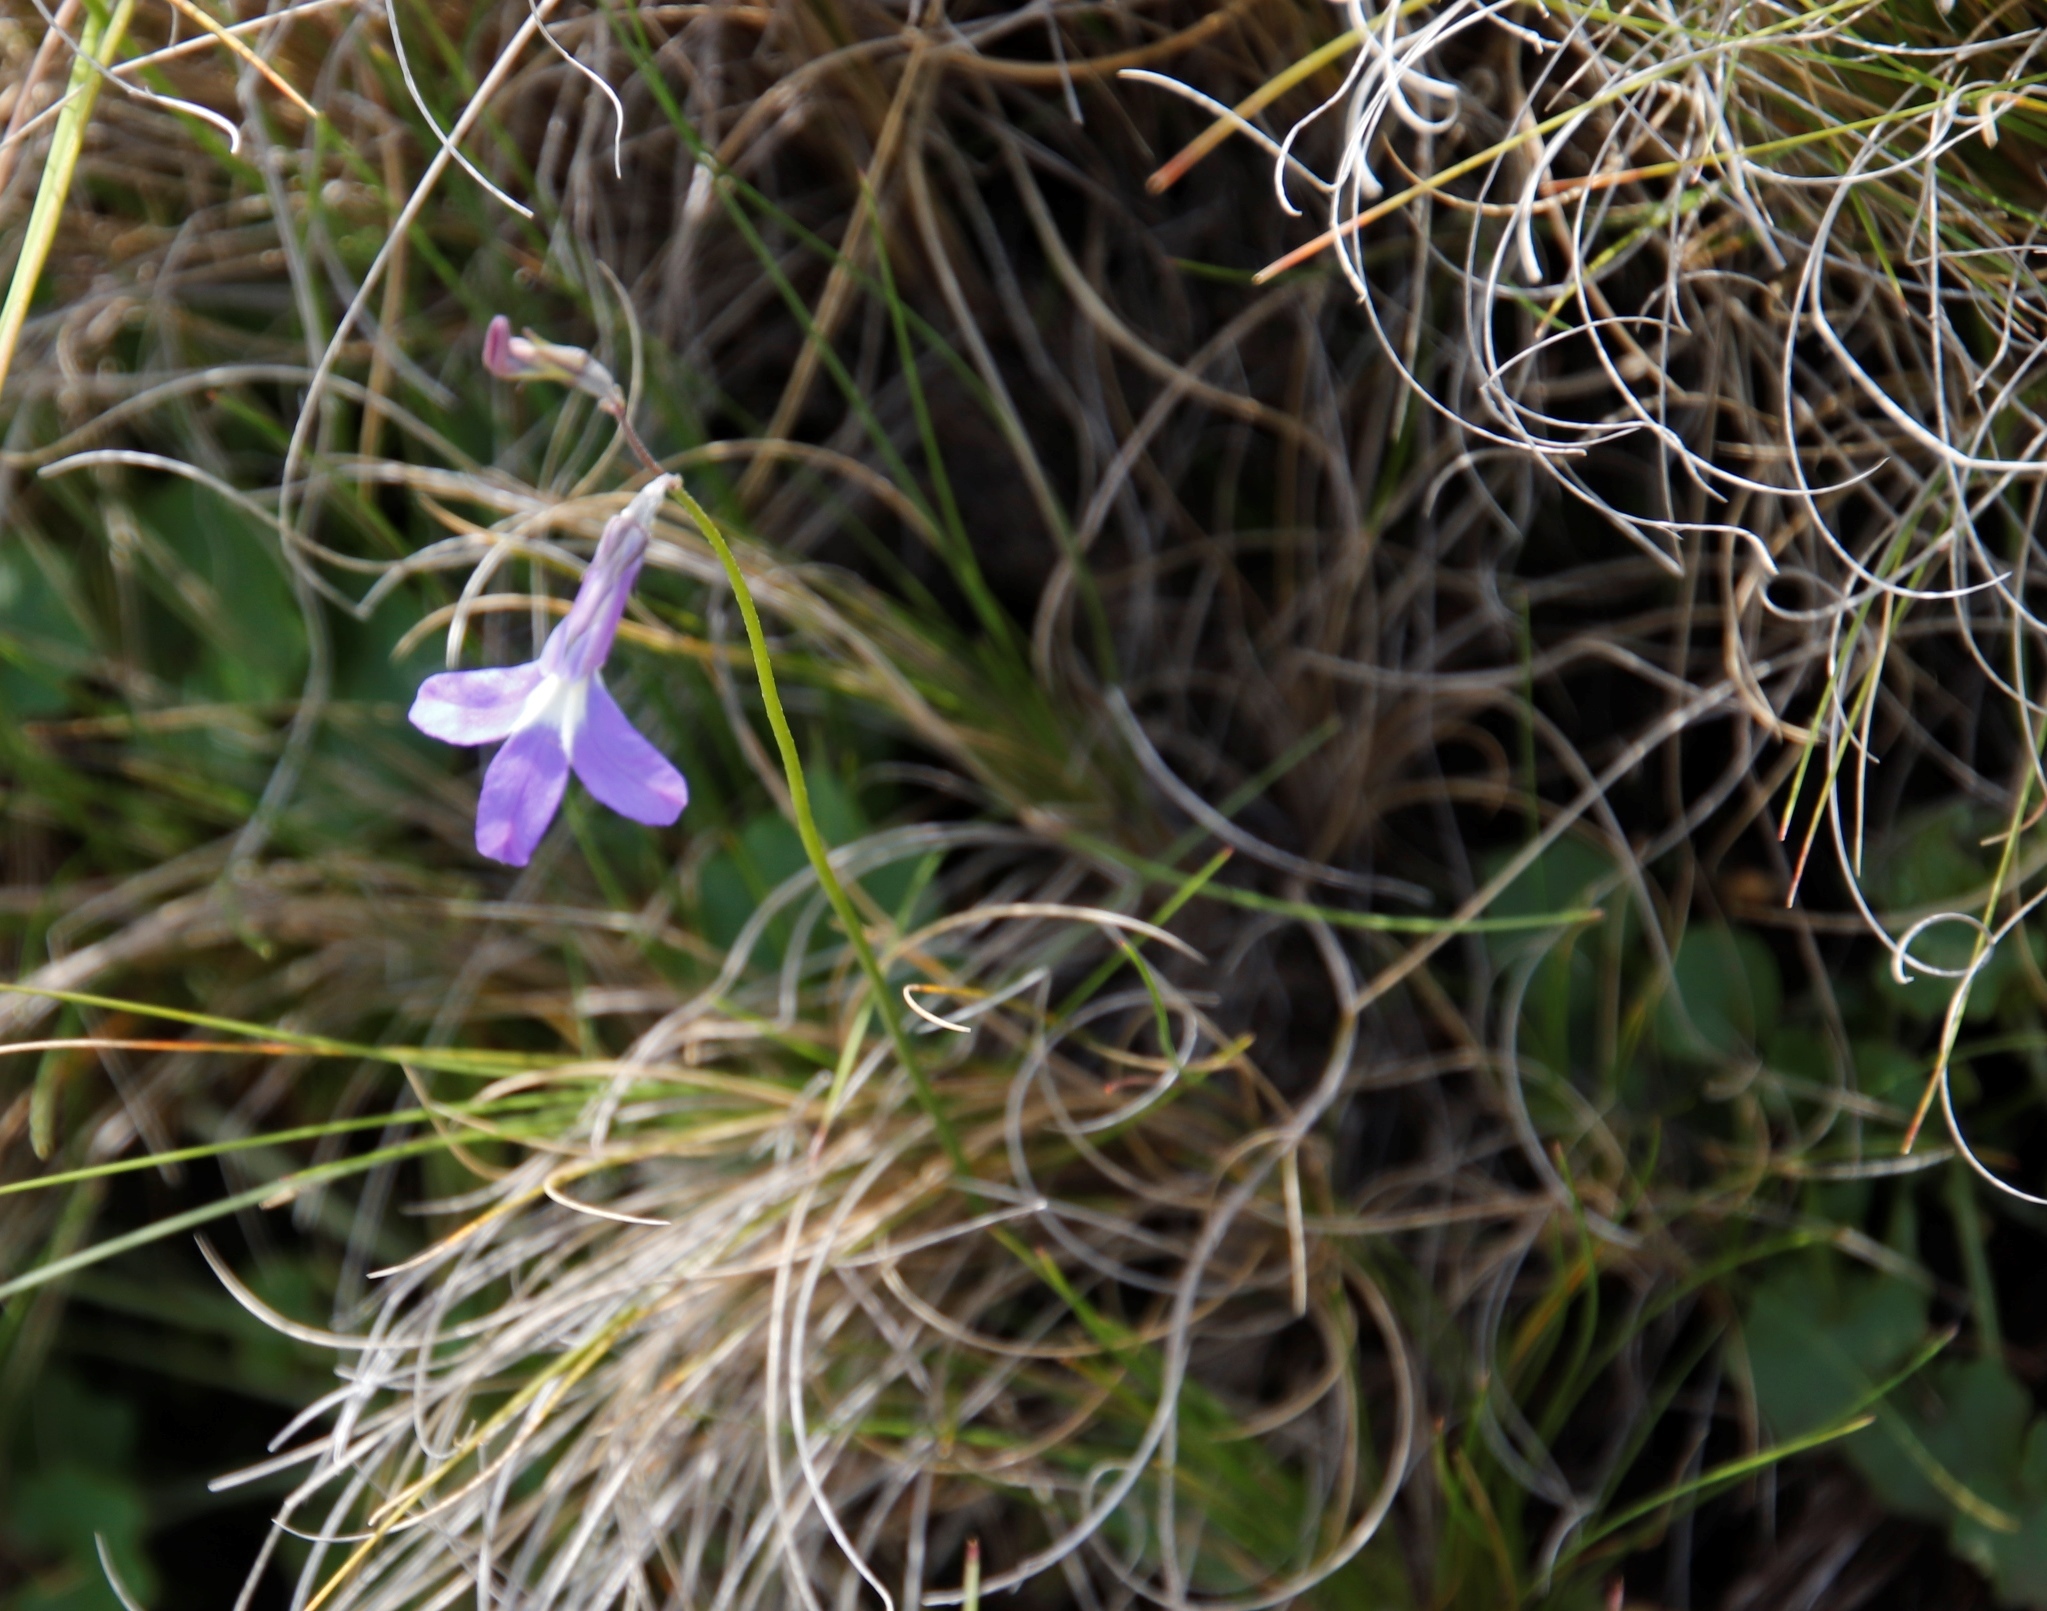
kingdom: Plantae
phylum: Tracheophyta
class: Magnoliopsida
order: Asterales
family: Campanulaceae
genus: Lobelia
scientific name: Lobelia preslii
